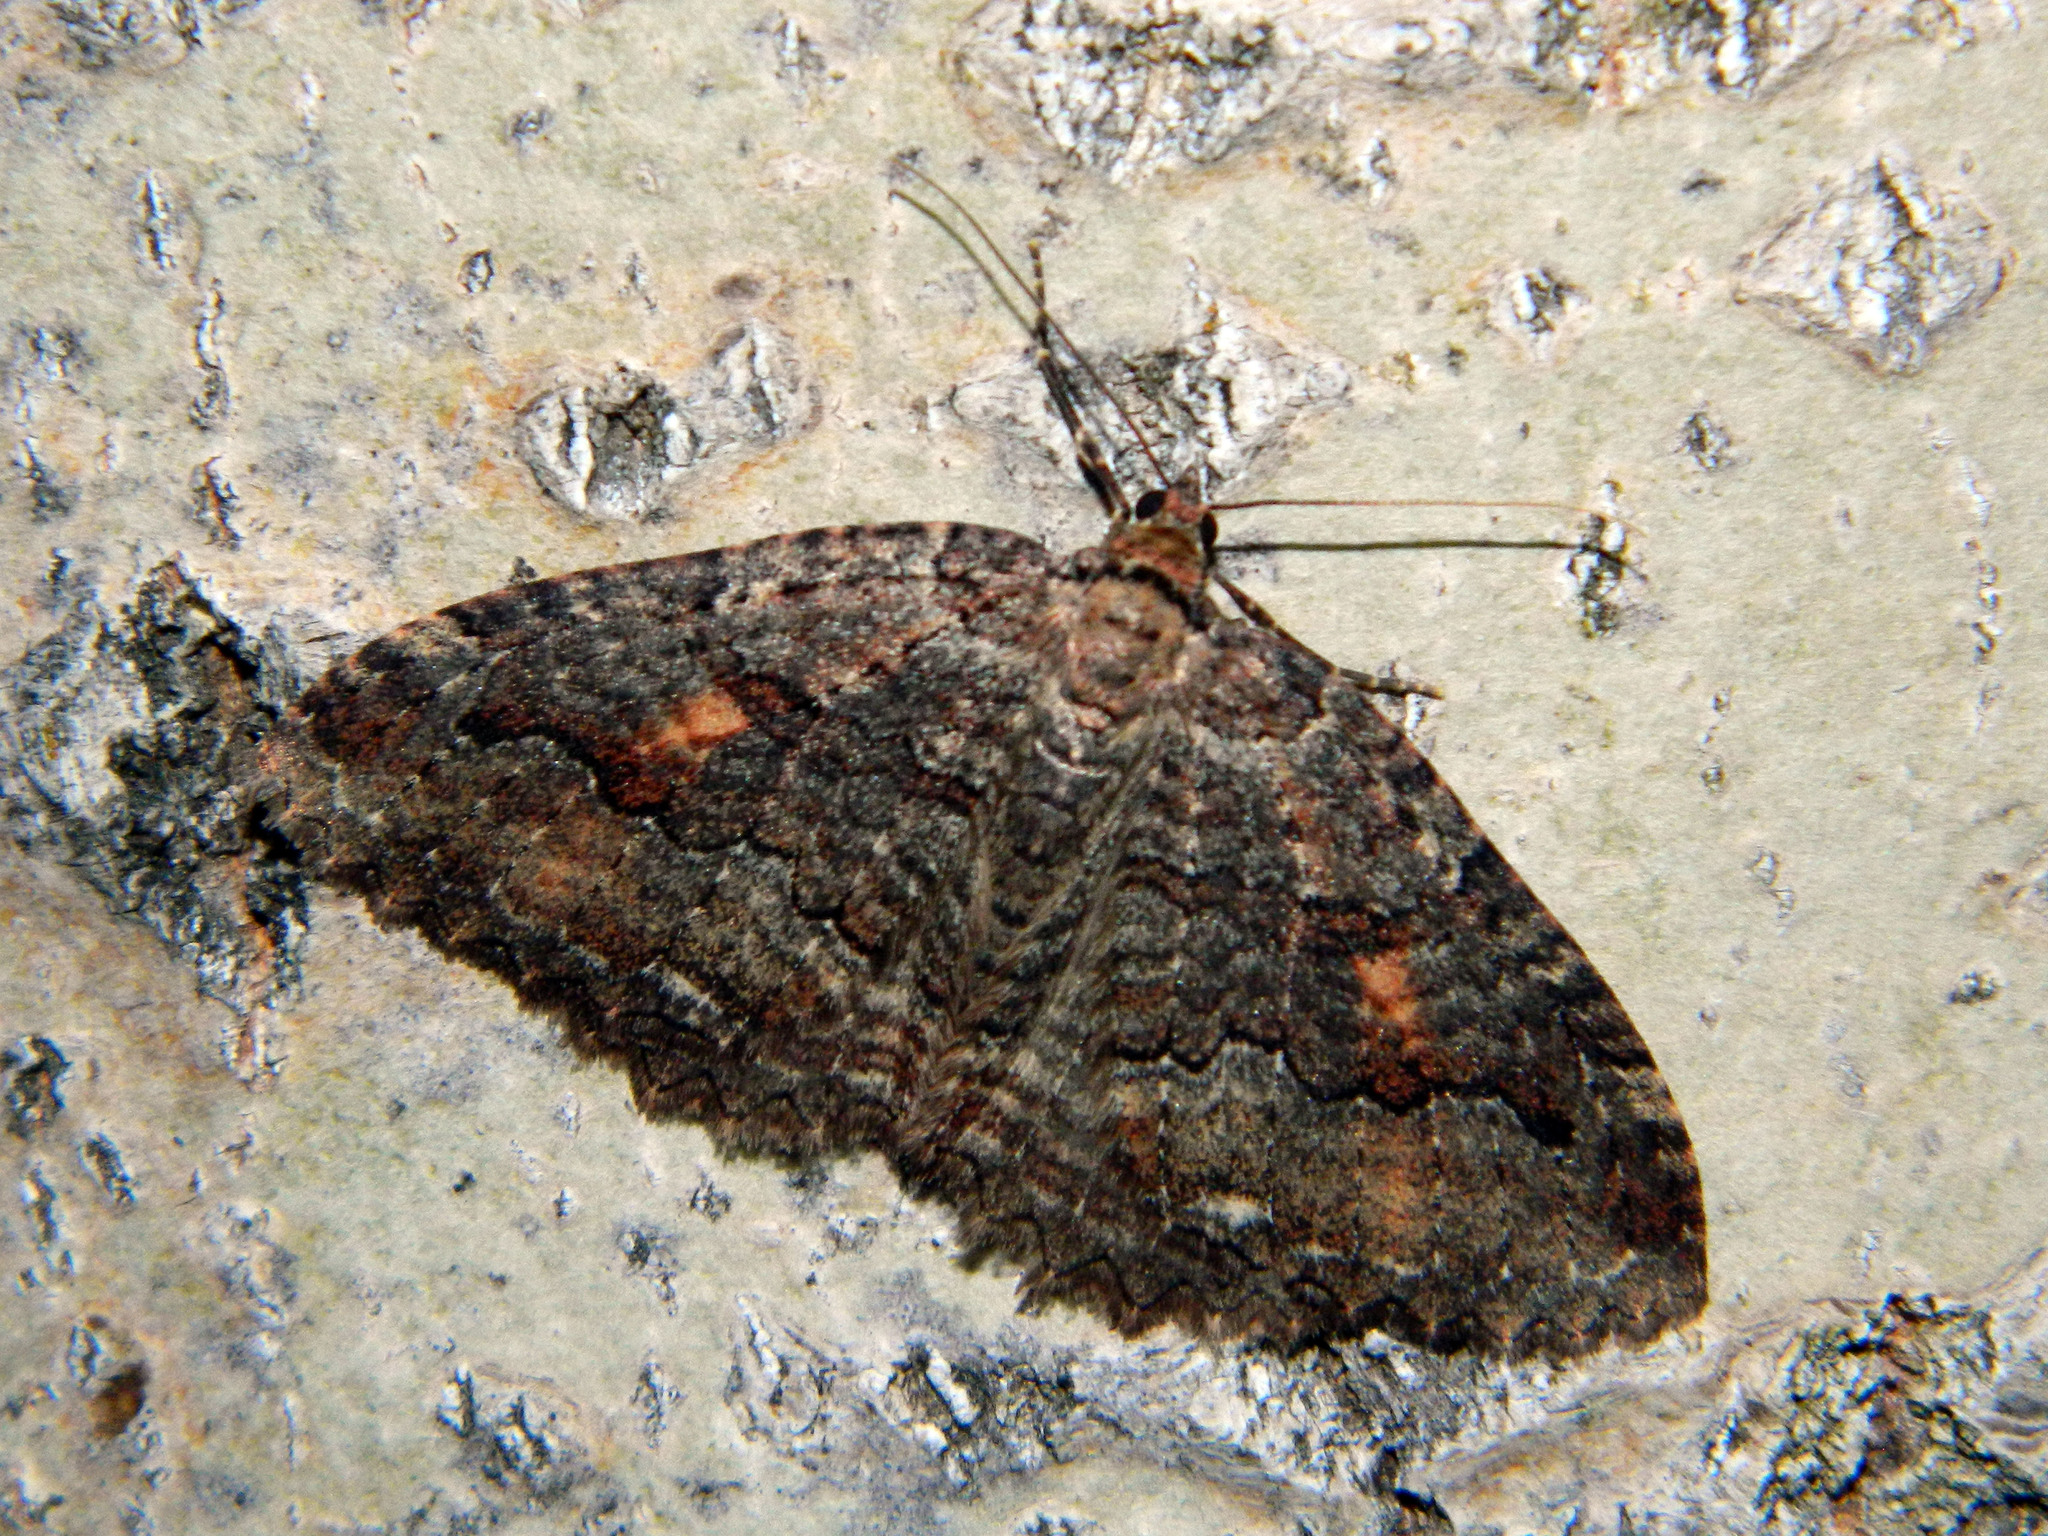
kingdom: Animalia
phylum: Arthropoda
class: Insecta
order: Lepidoptera
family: Geometridae
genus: Triphosa
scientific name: Triphosa haesitata
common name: Tissue moth
